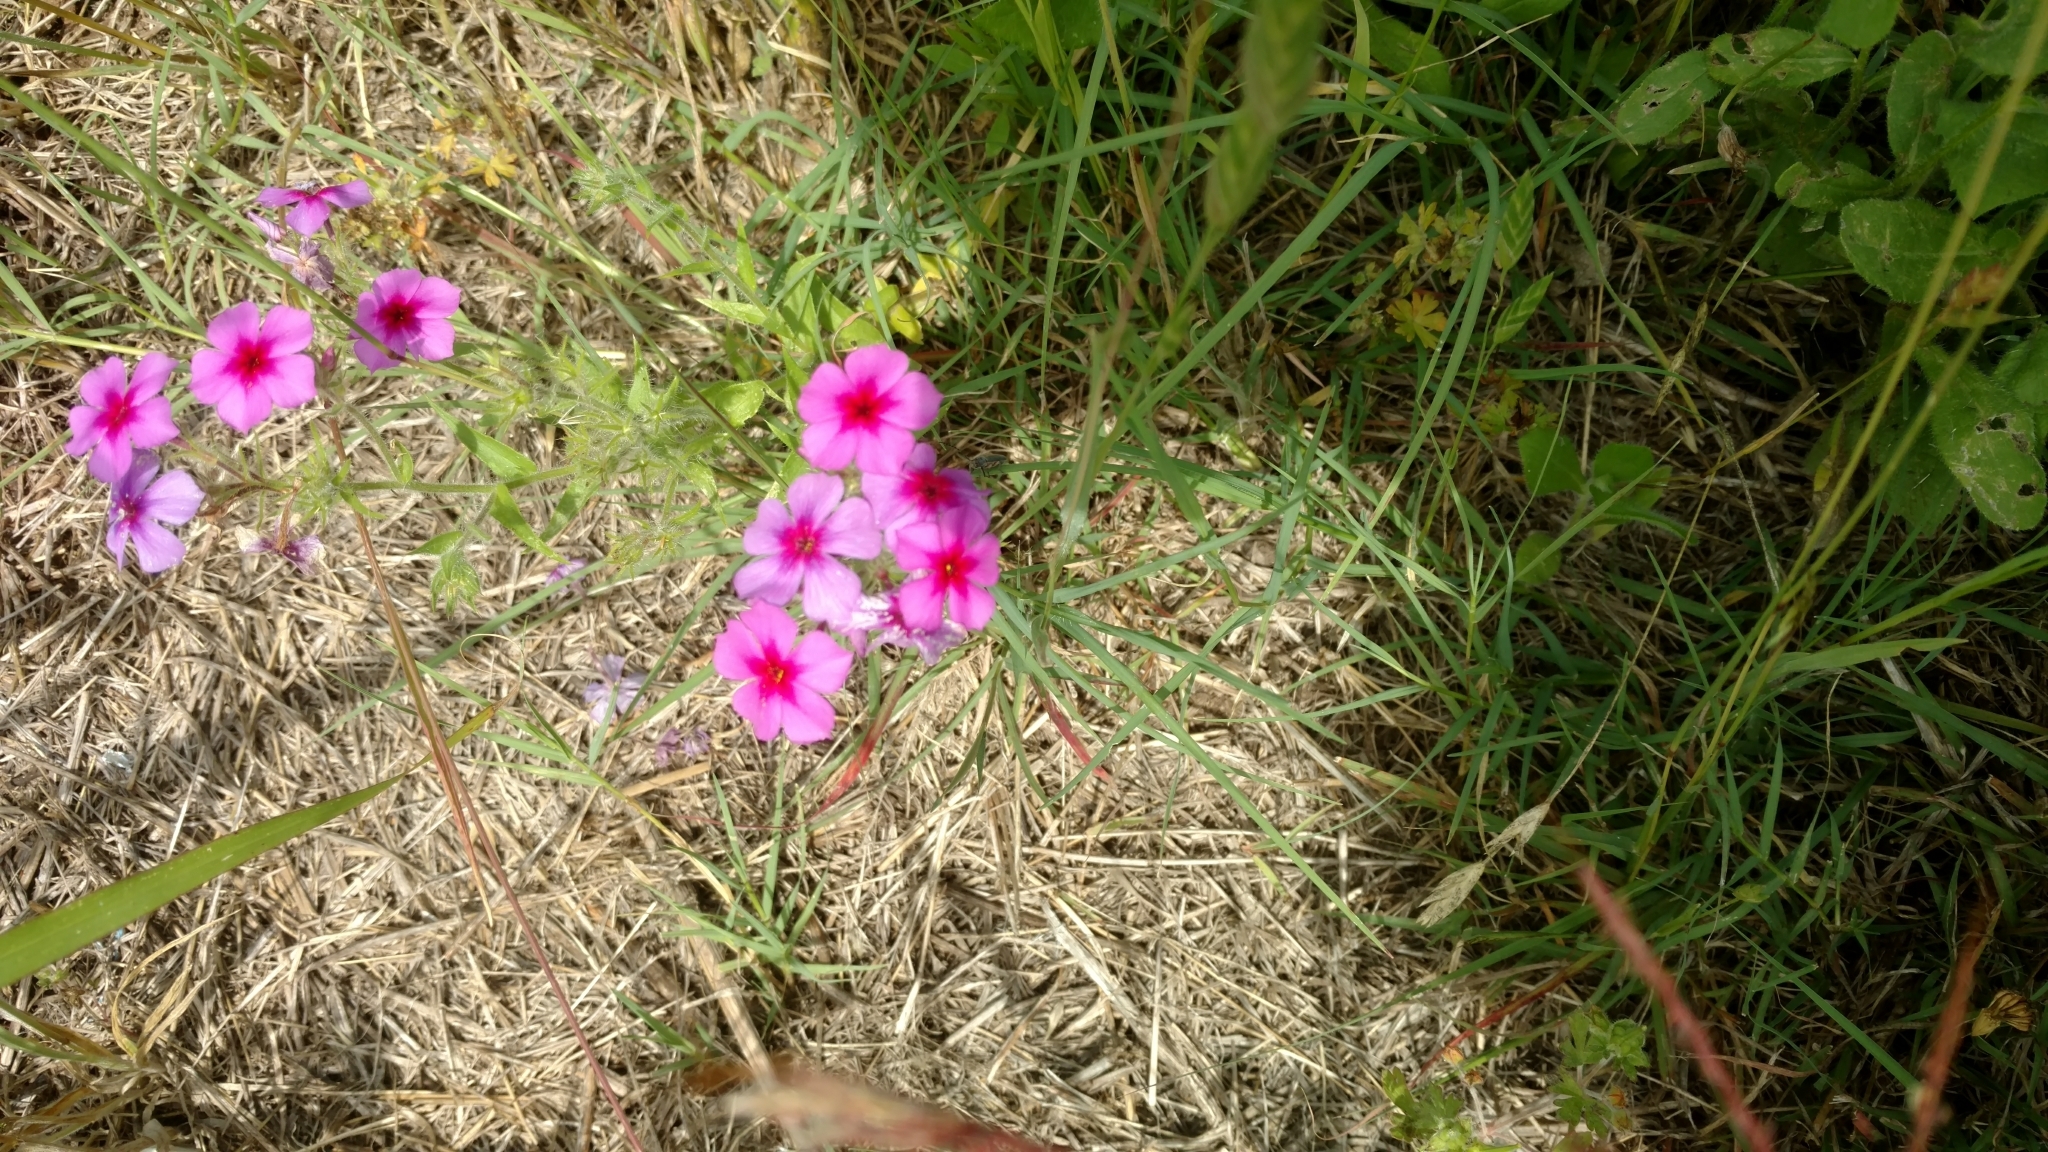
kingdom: Plantae
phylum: Tracheophyta
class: Magnoliopsida
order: Ericales
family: Polemoniaceae
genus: Phlox
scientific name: Phlox drummondii
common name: Drummond's phlox
